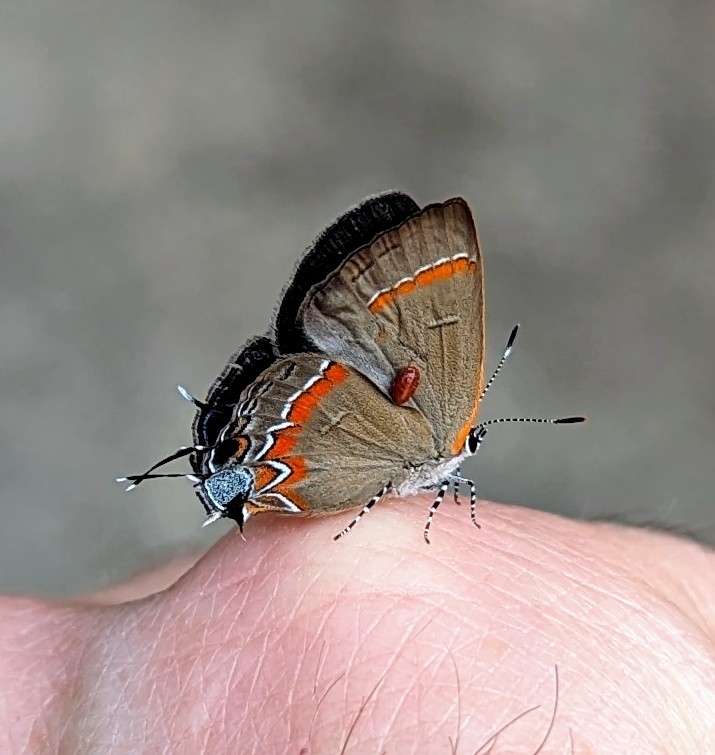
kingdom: Animalia
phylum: Arthropoda
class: Insecta
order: Lepidoptera
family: Lycaenidae
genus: Calycopis
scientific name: Calycopis cecrops
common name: Red-banded hairstreak
